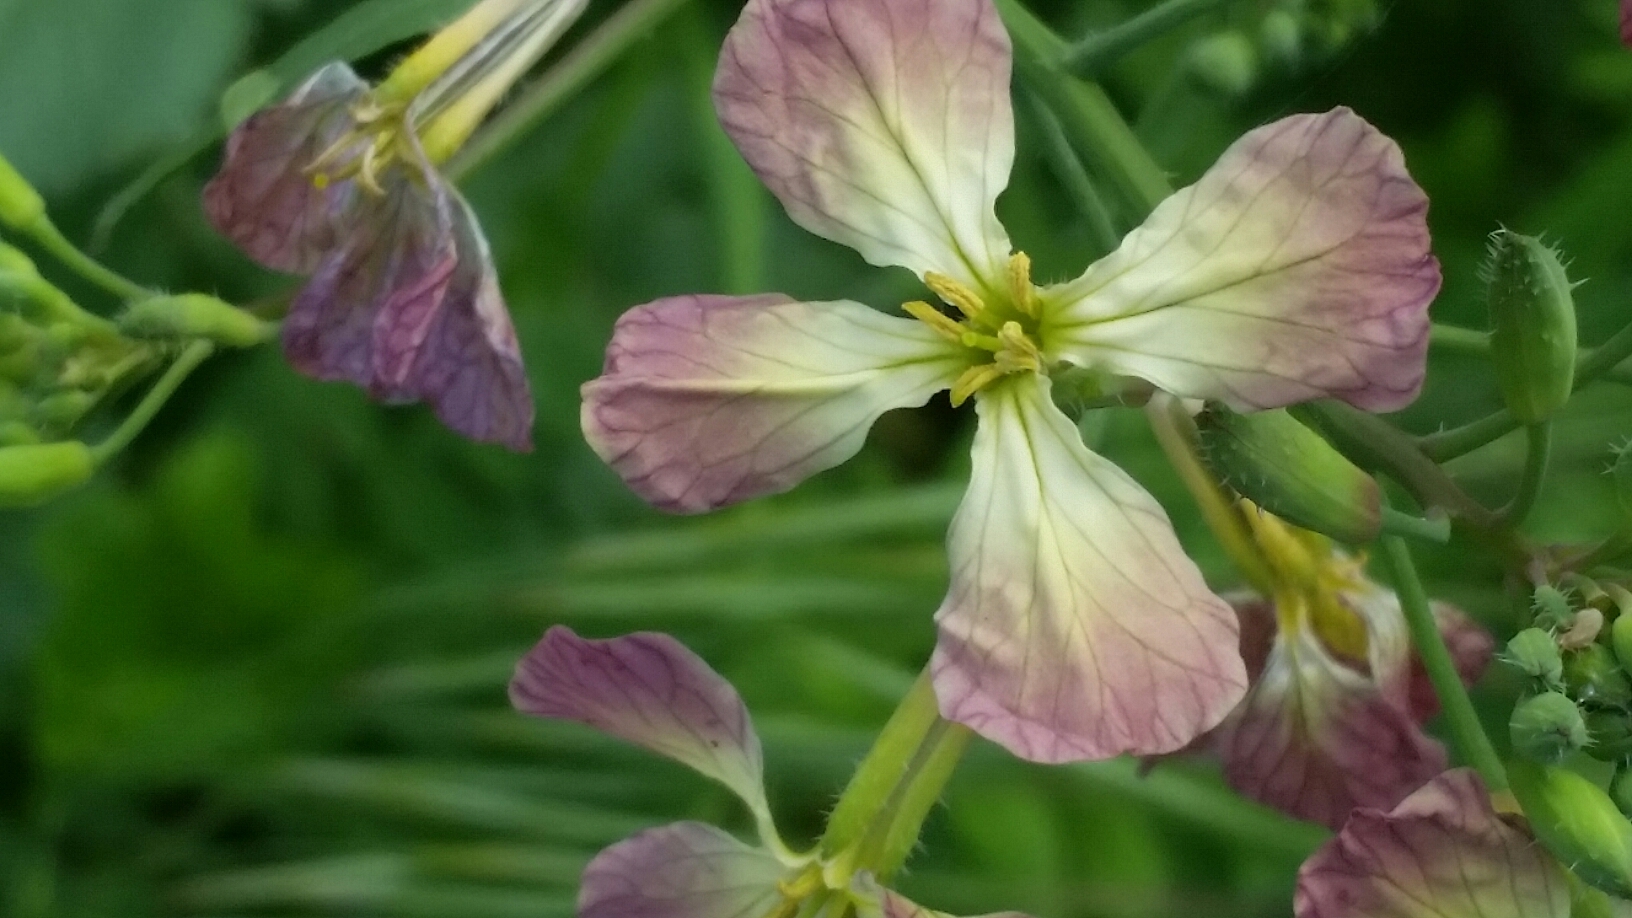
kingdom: Plantae
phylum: Tracheophyta
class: Magnoliopsida
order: Brassicales
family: Brassicaceae
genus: Raphanus
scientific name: Raphanus sativus
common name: Cultivated radish
